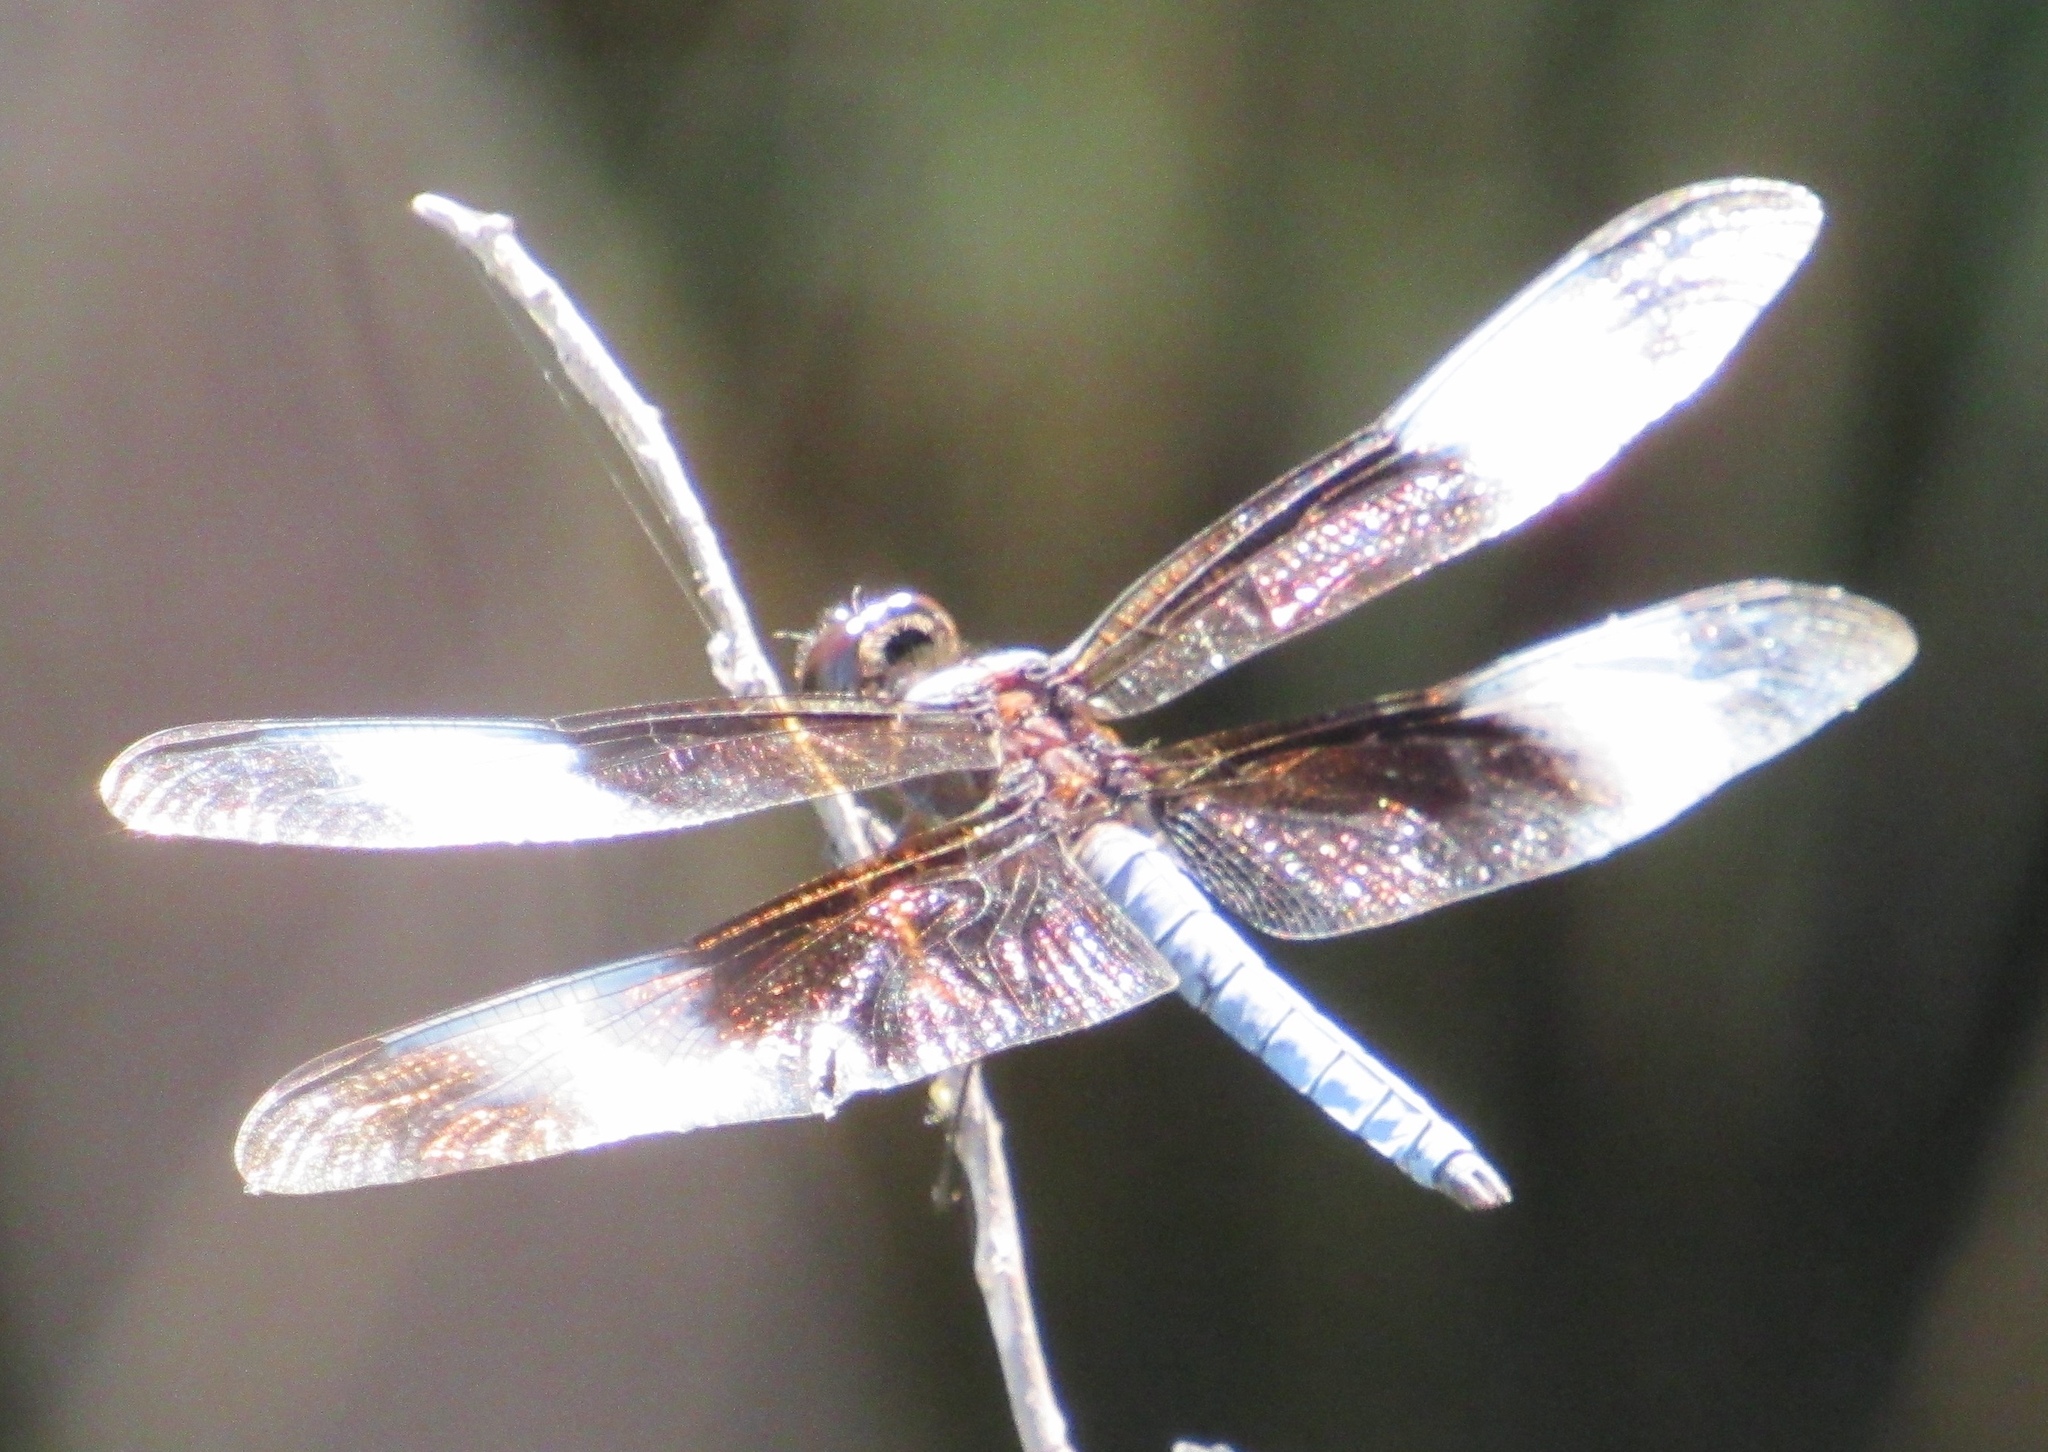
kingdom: Animalia
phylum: Arthropoda
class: Insecta
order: Odonata
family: Libellulidae
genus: Libellula
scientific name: Libellula luctuosa
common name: Widow skimmer
